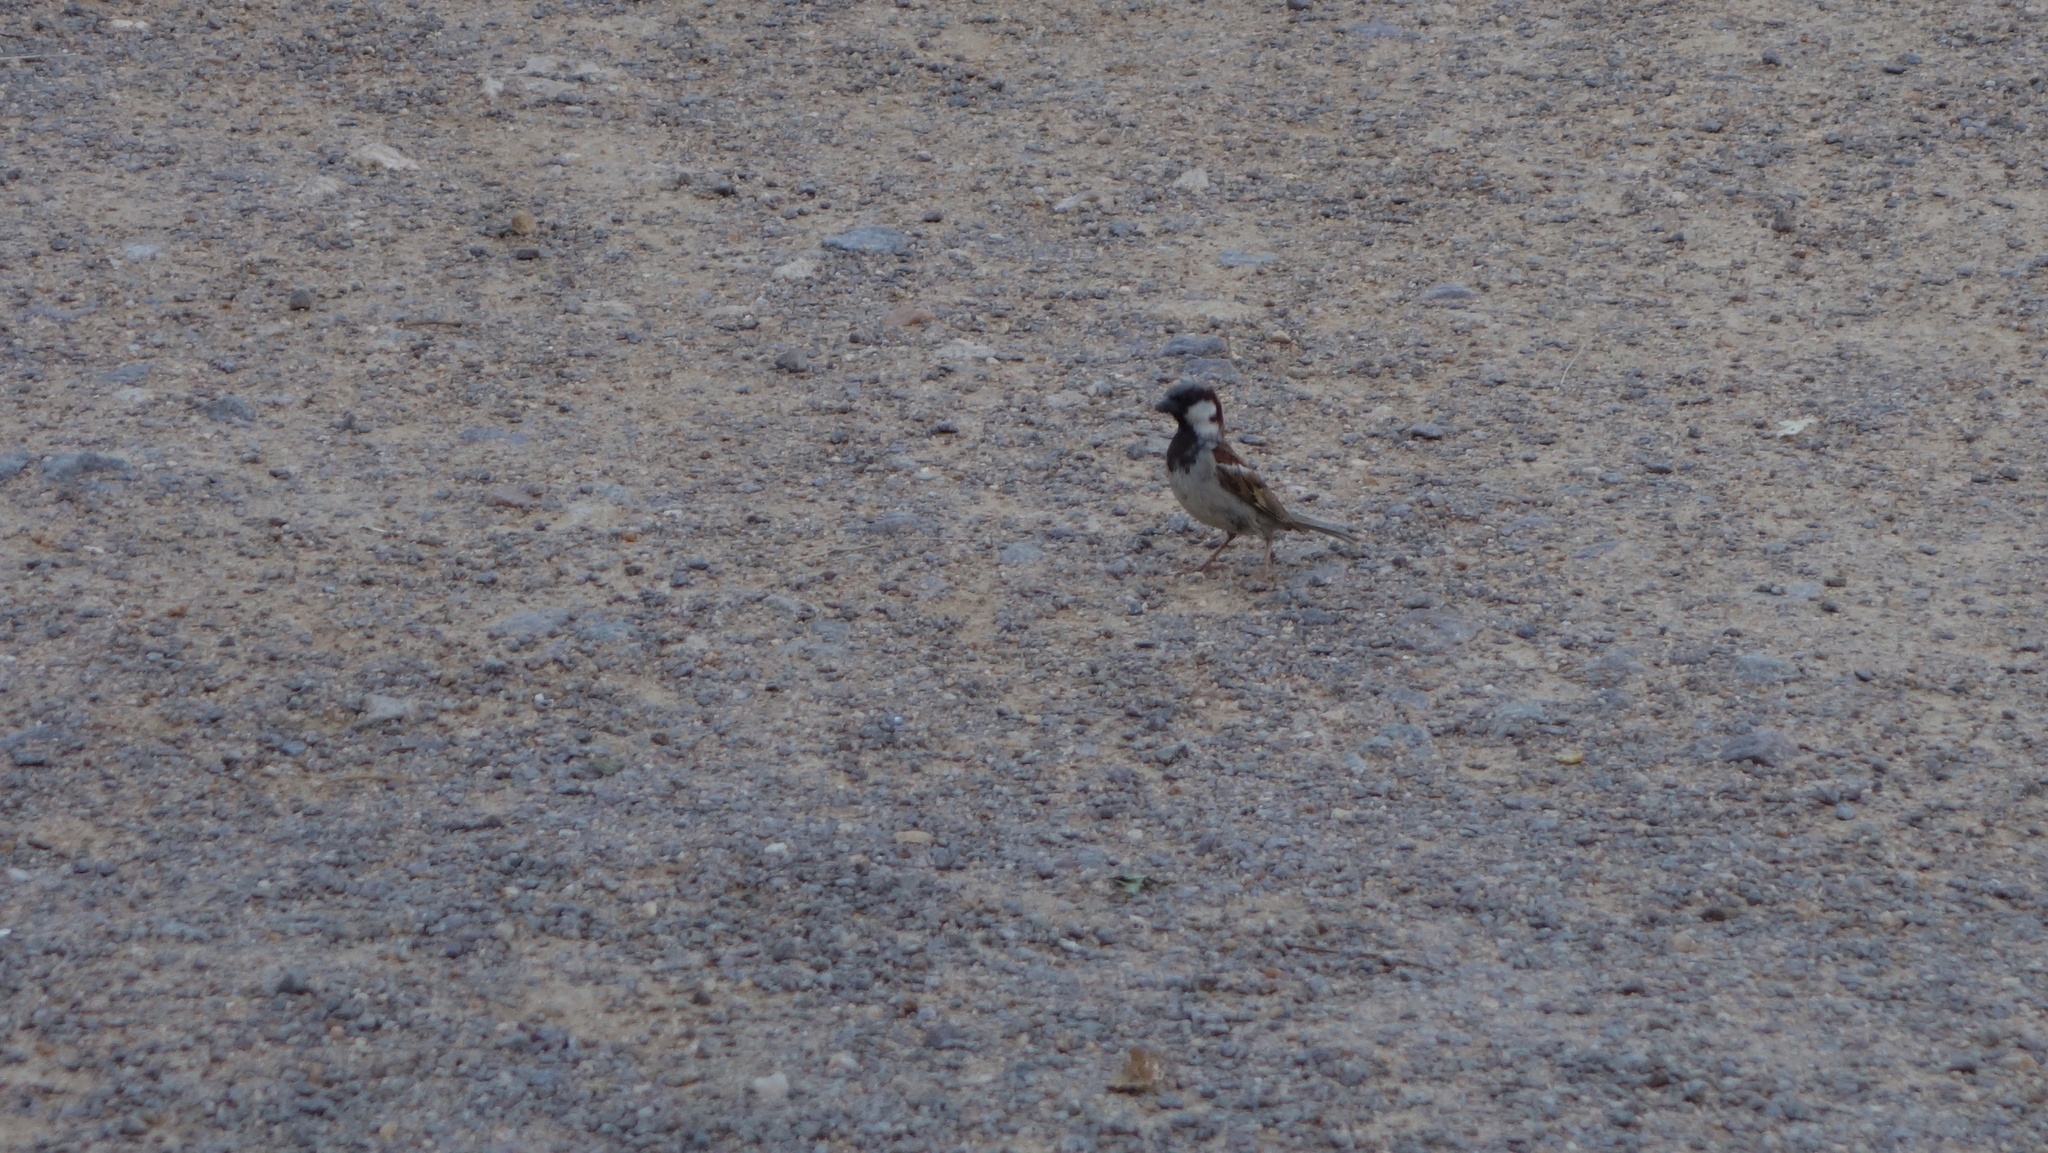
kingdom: Animalia
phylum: Chordata
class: Aves
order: Passeriformes
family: Passeridae
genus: Passer
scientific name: Passer domesticus
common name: House sparrow
